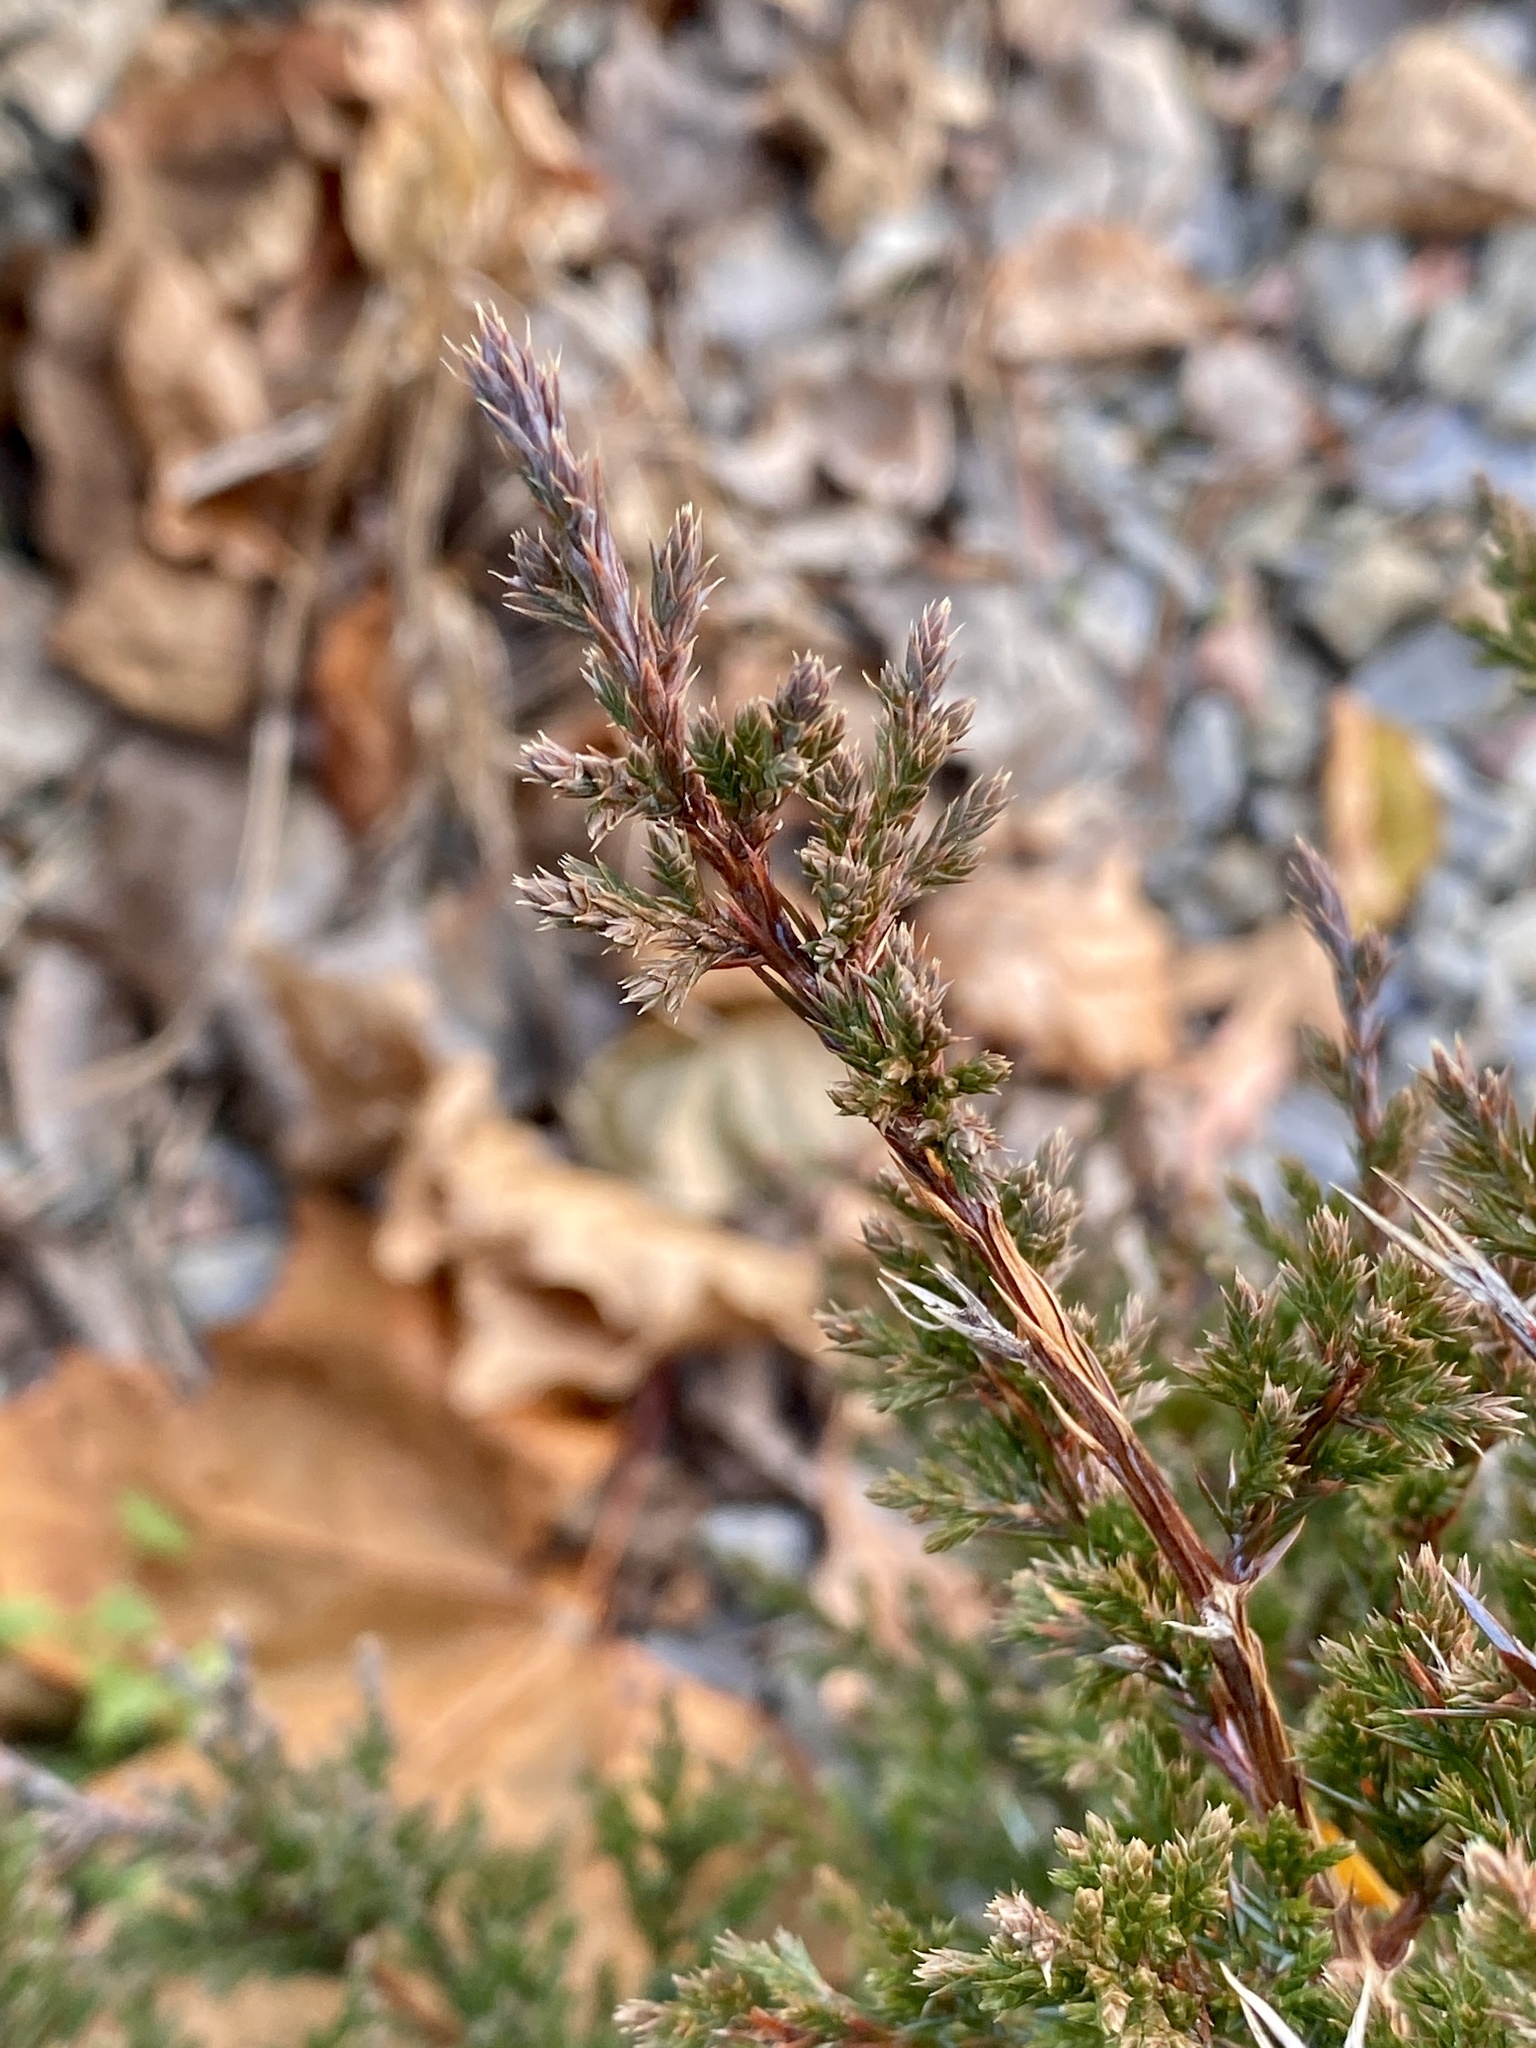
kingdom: Plantae
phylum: Tracheophyta
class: Pinopsida
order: Pinales
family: Cupressaceae
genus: Juniperus
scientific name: Juniperus virginiana
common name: Red juniper
